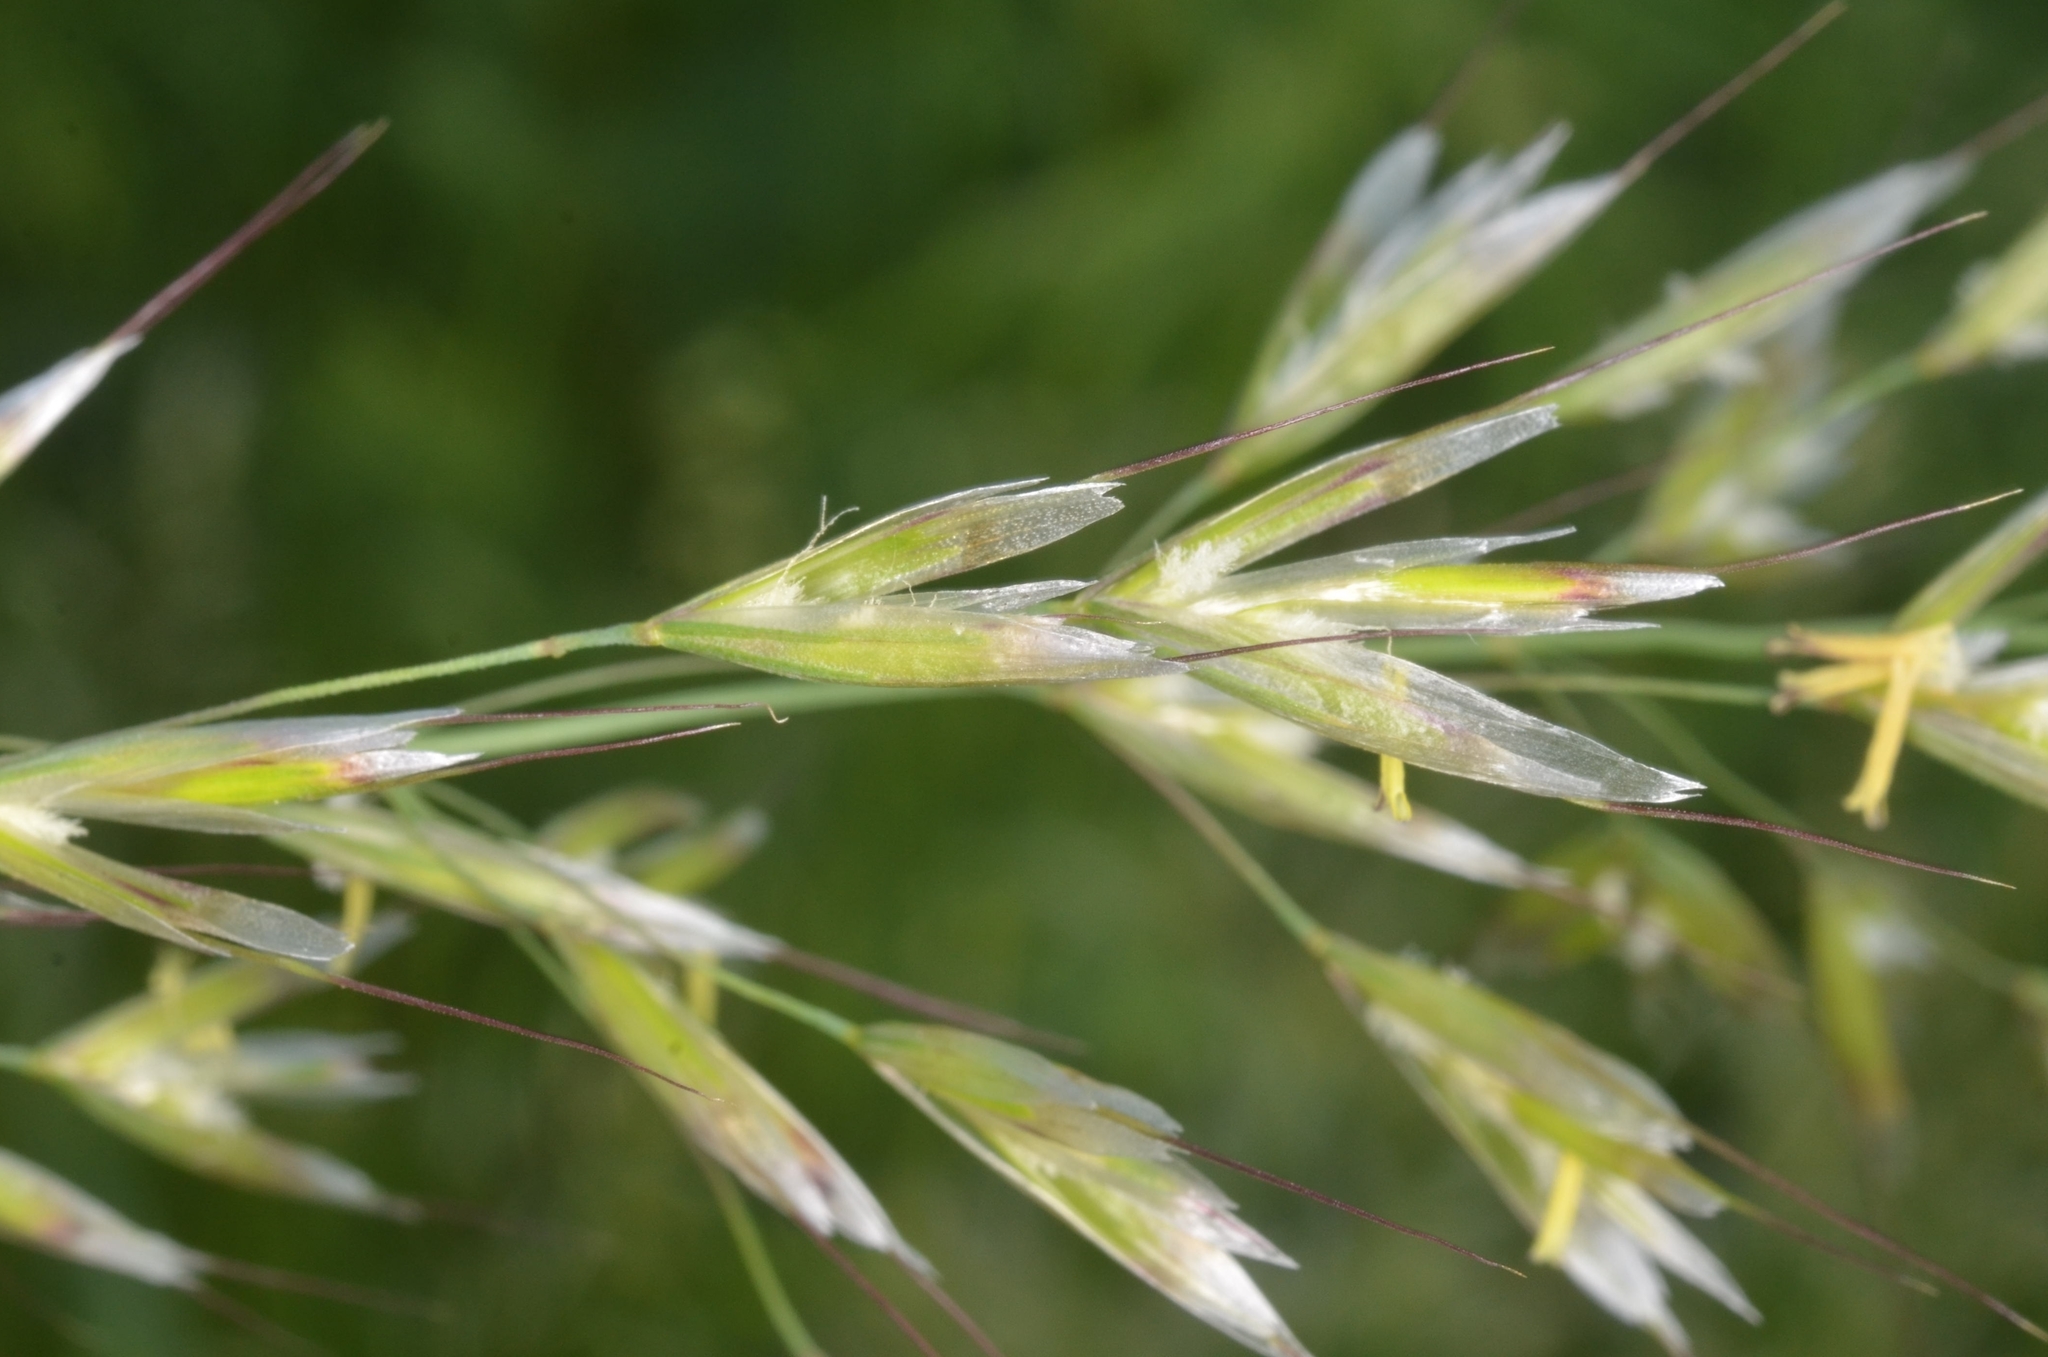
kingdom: Plantae
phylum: Tracheophyta
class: Liliopsida
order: Poales
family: Poaceae
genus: Avenula
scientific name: Avenula pubescens
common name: Downy alpine oatgrass
